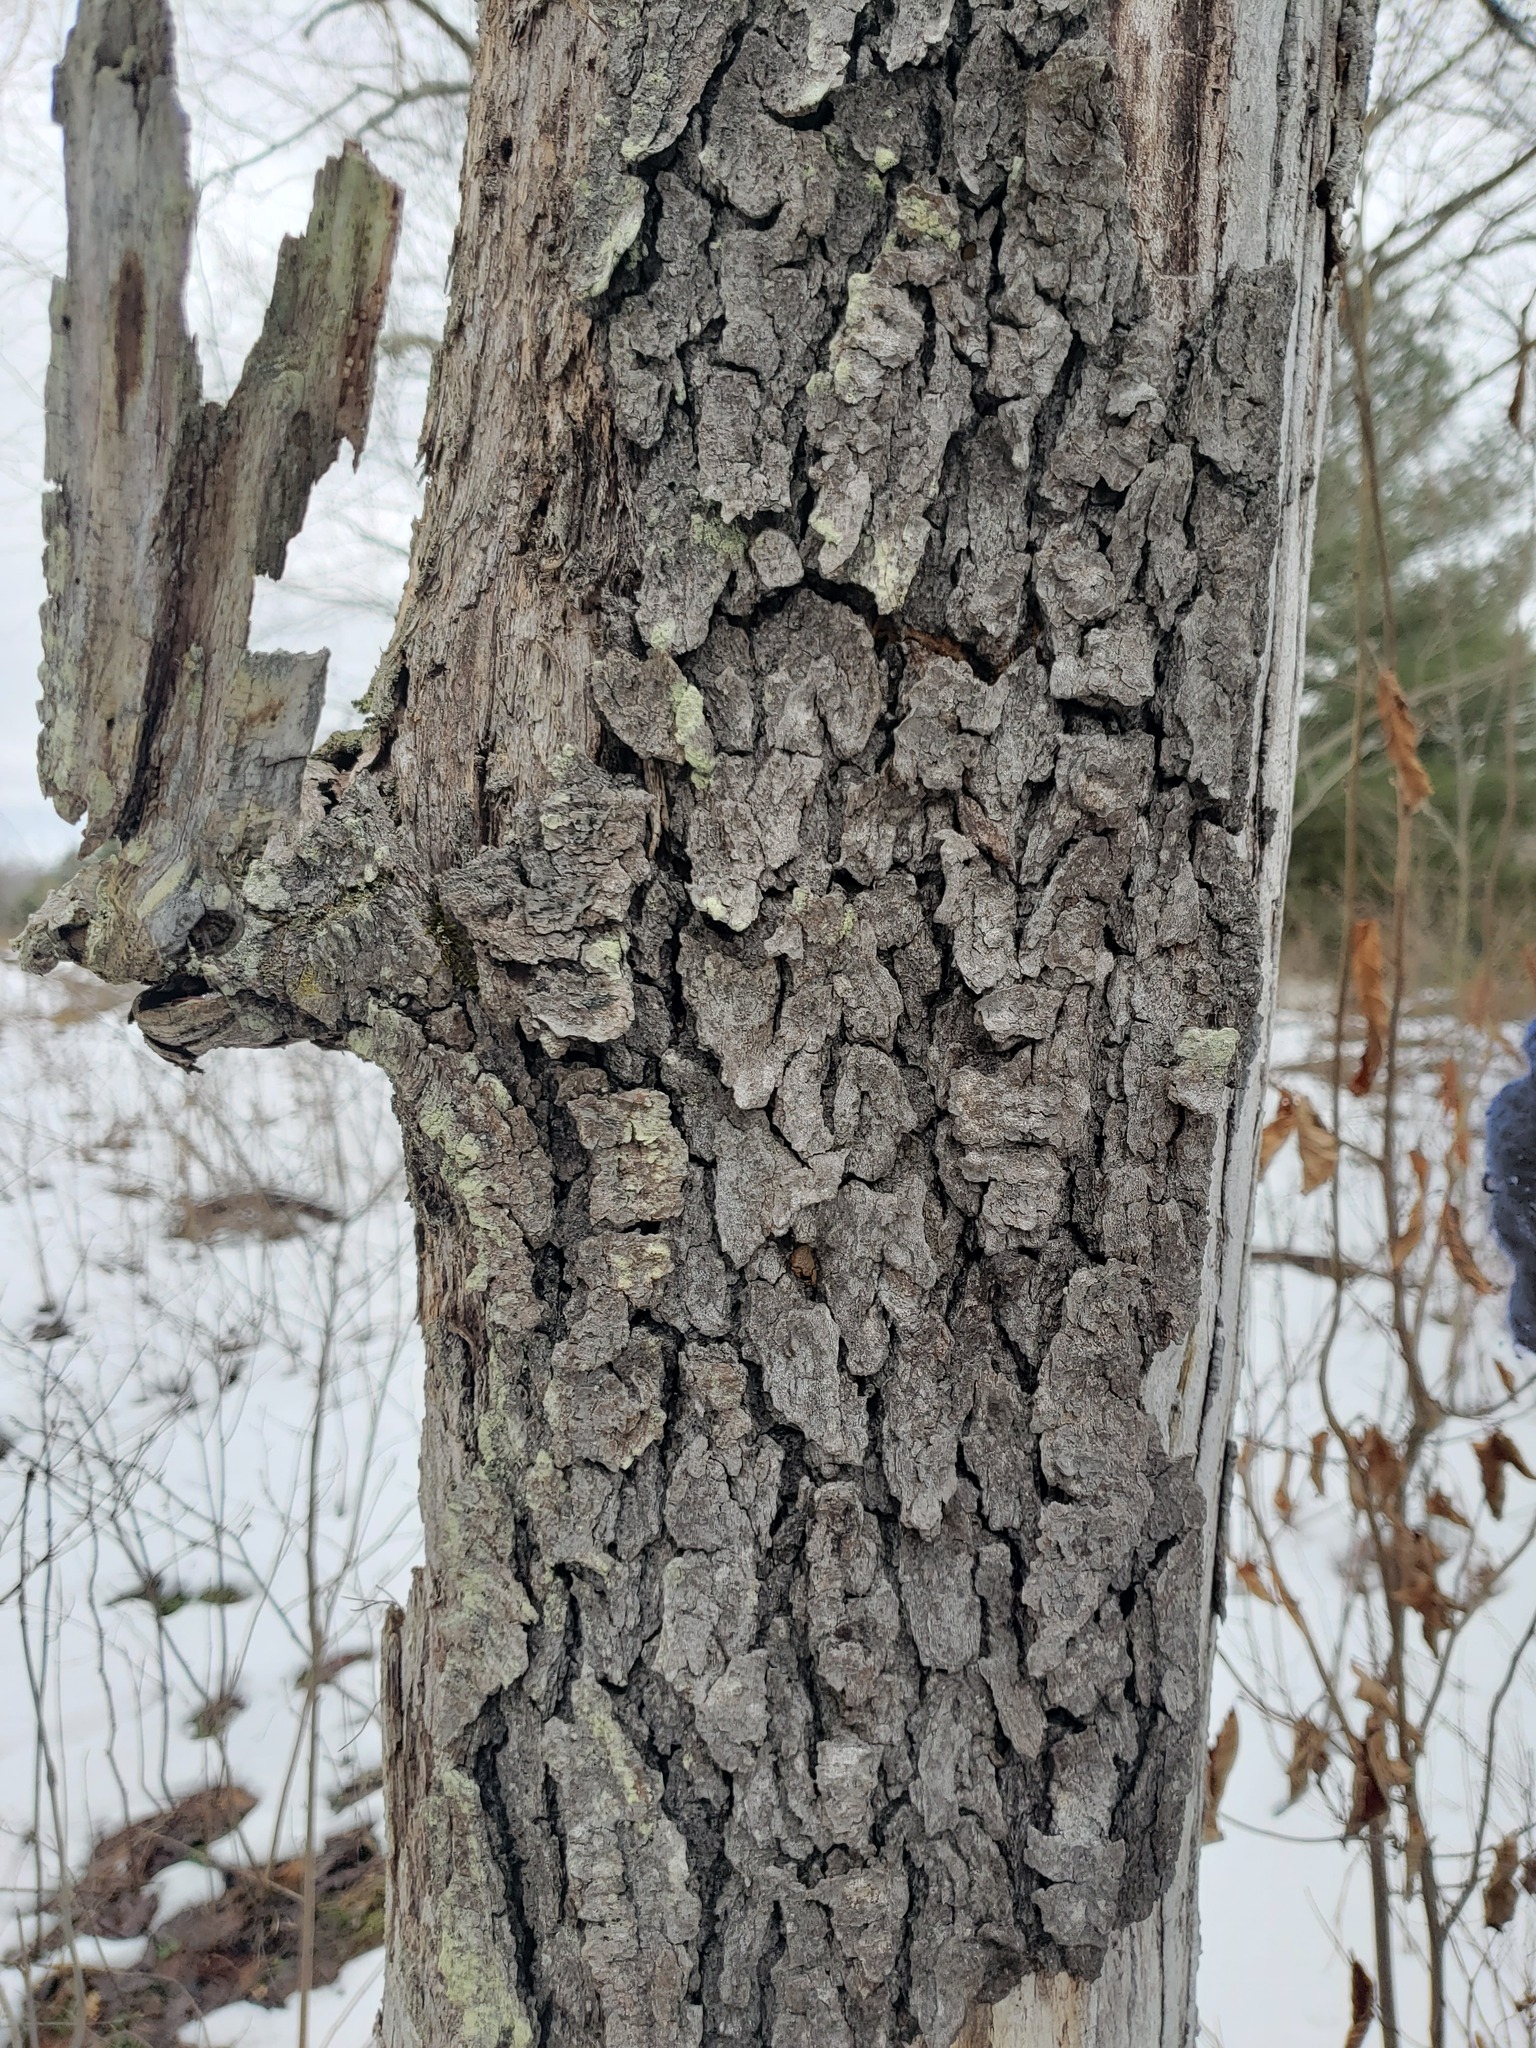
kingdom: Plantae
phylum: Tracheophyta
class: Magnoliopsida
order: Rosales
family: Rosaceae
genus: Prunus
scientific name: Prunus serotina
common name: Black cherry
